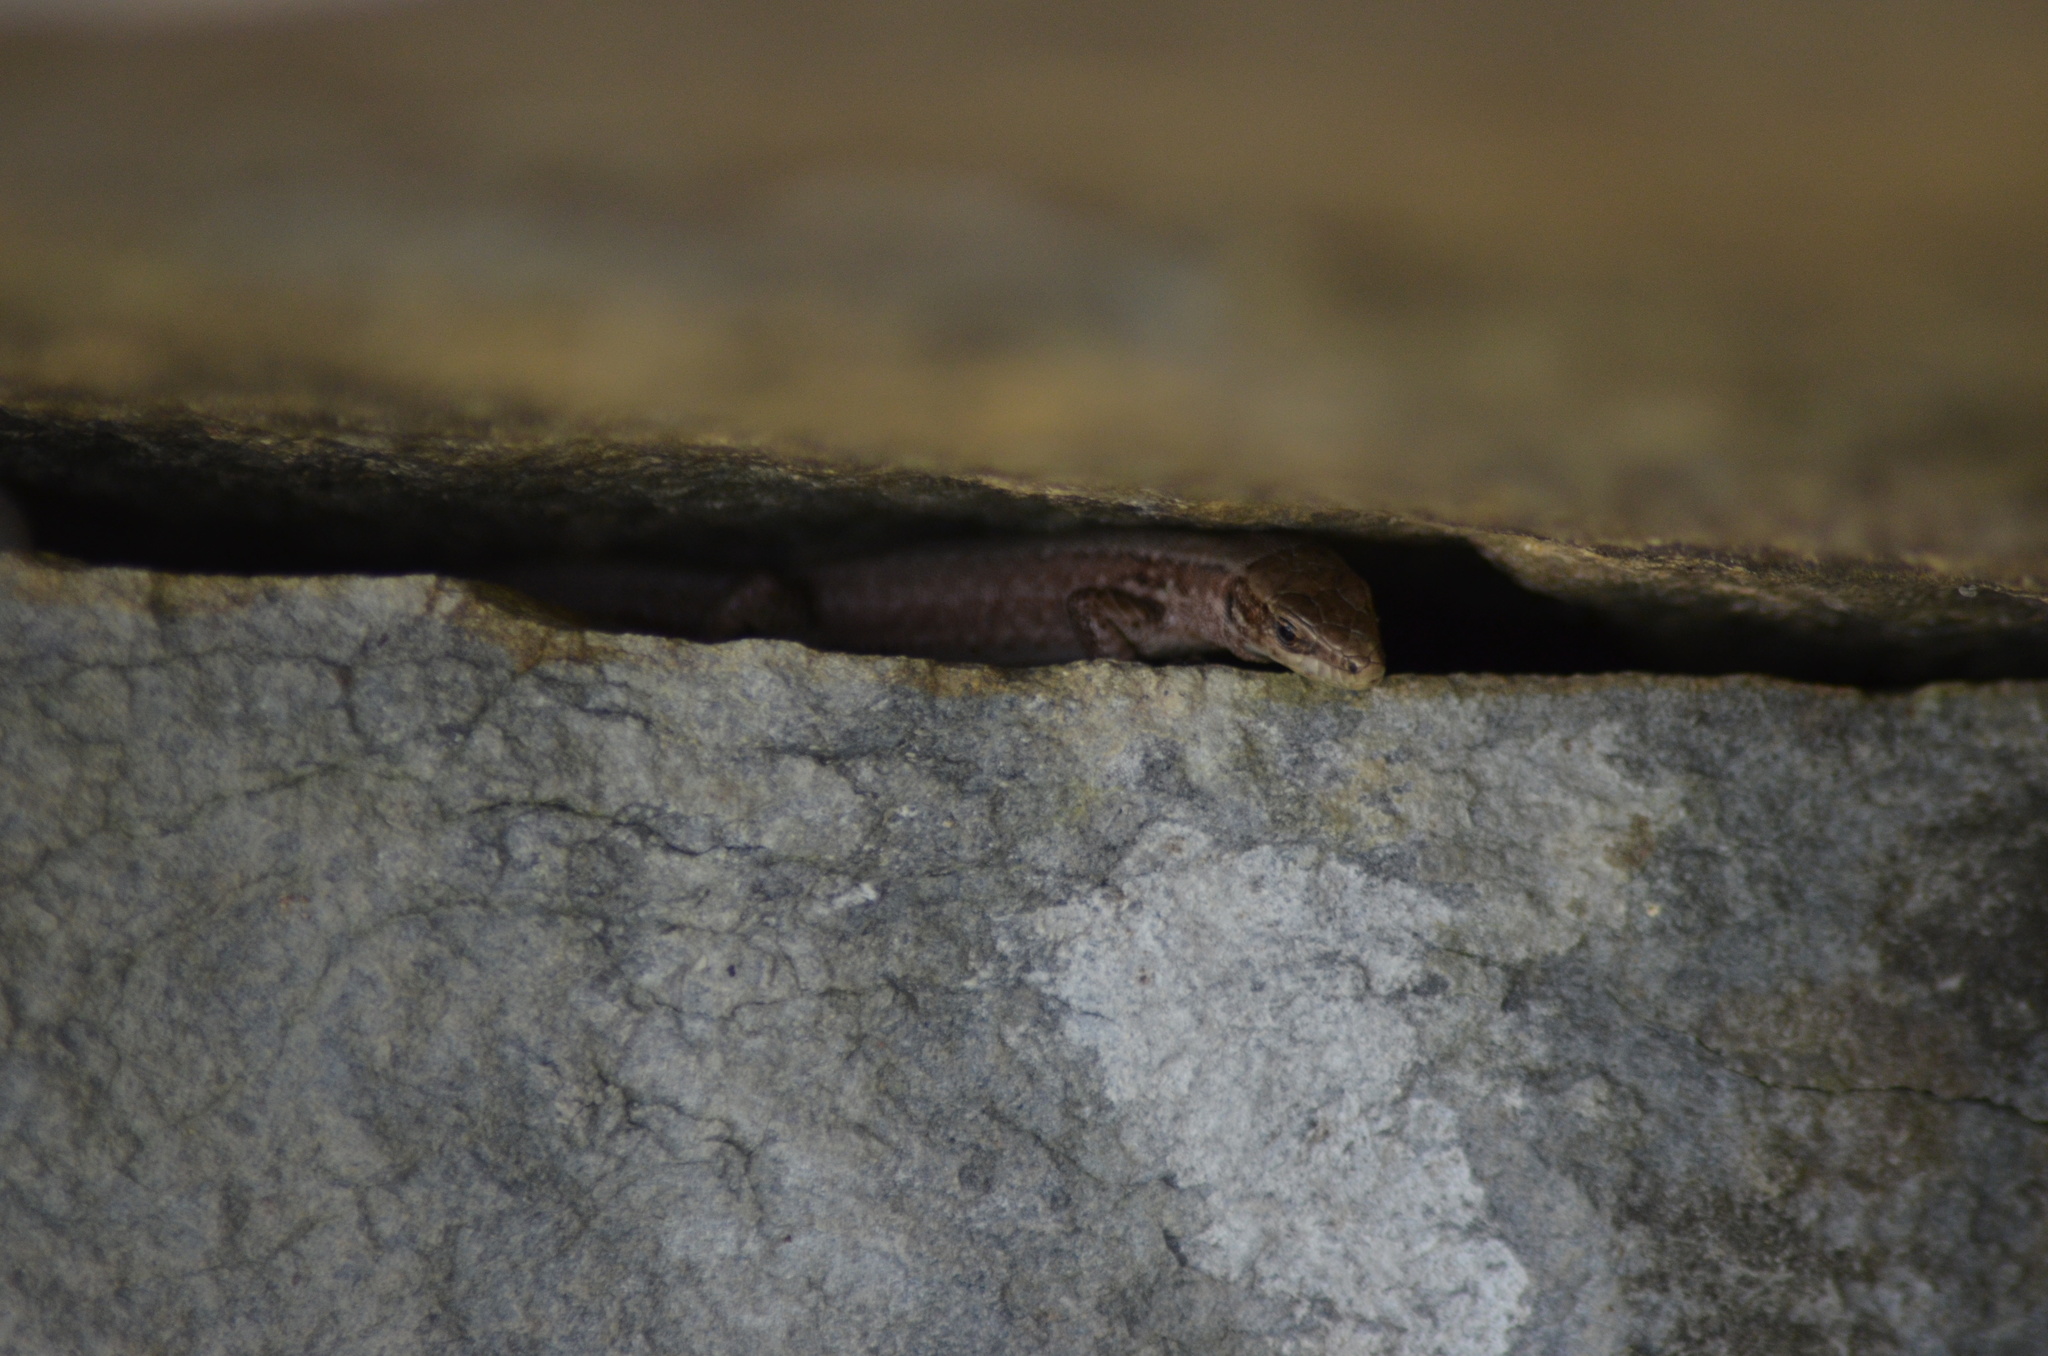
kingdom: Animalia
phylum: Chordata
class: Squamata
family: Lacertidae
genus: Podarcis
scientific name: Podarcis muralis
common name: Common wall lizard
